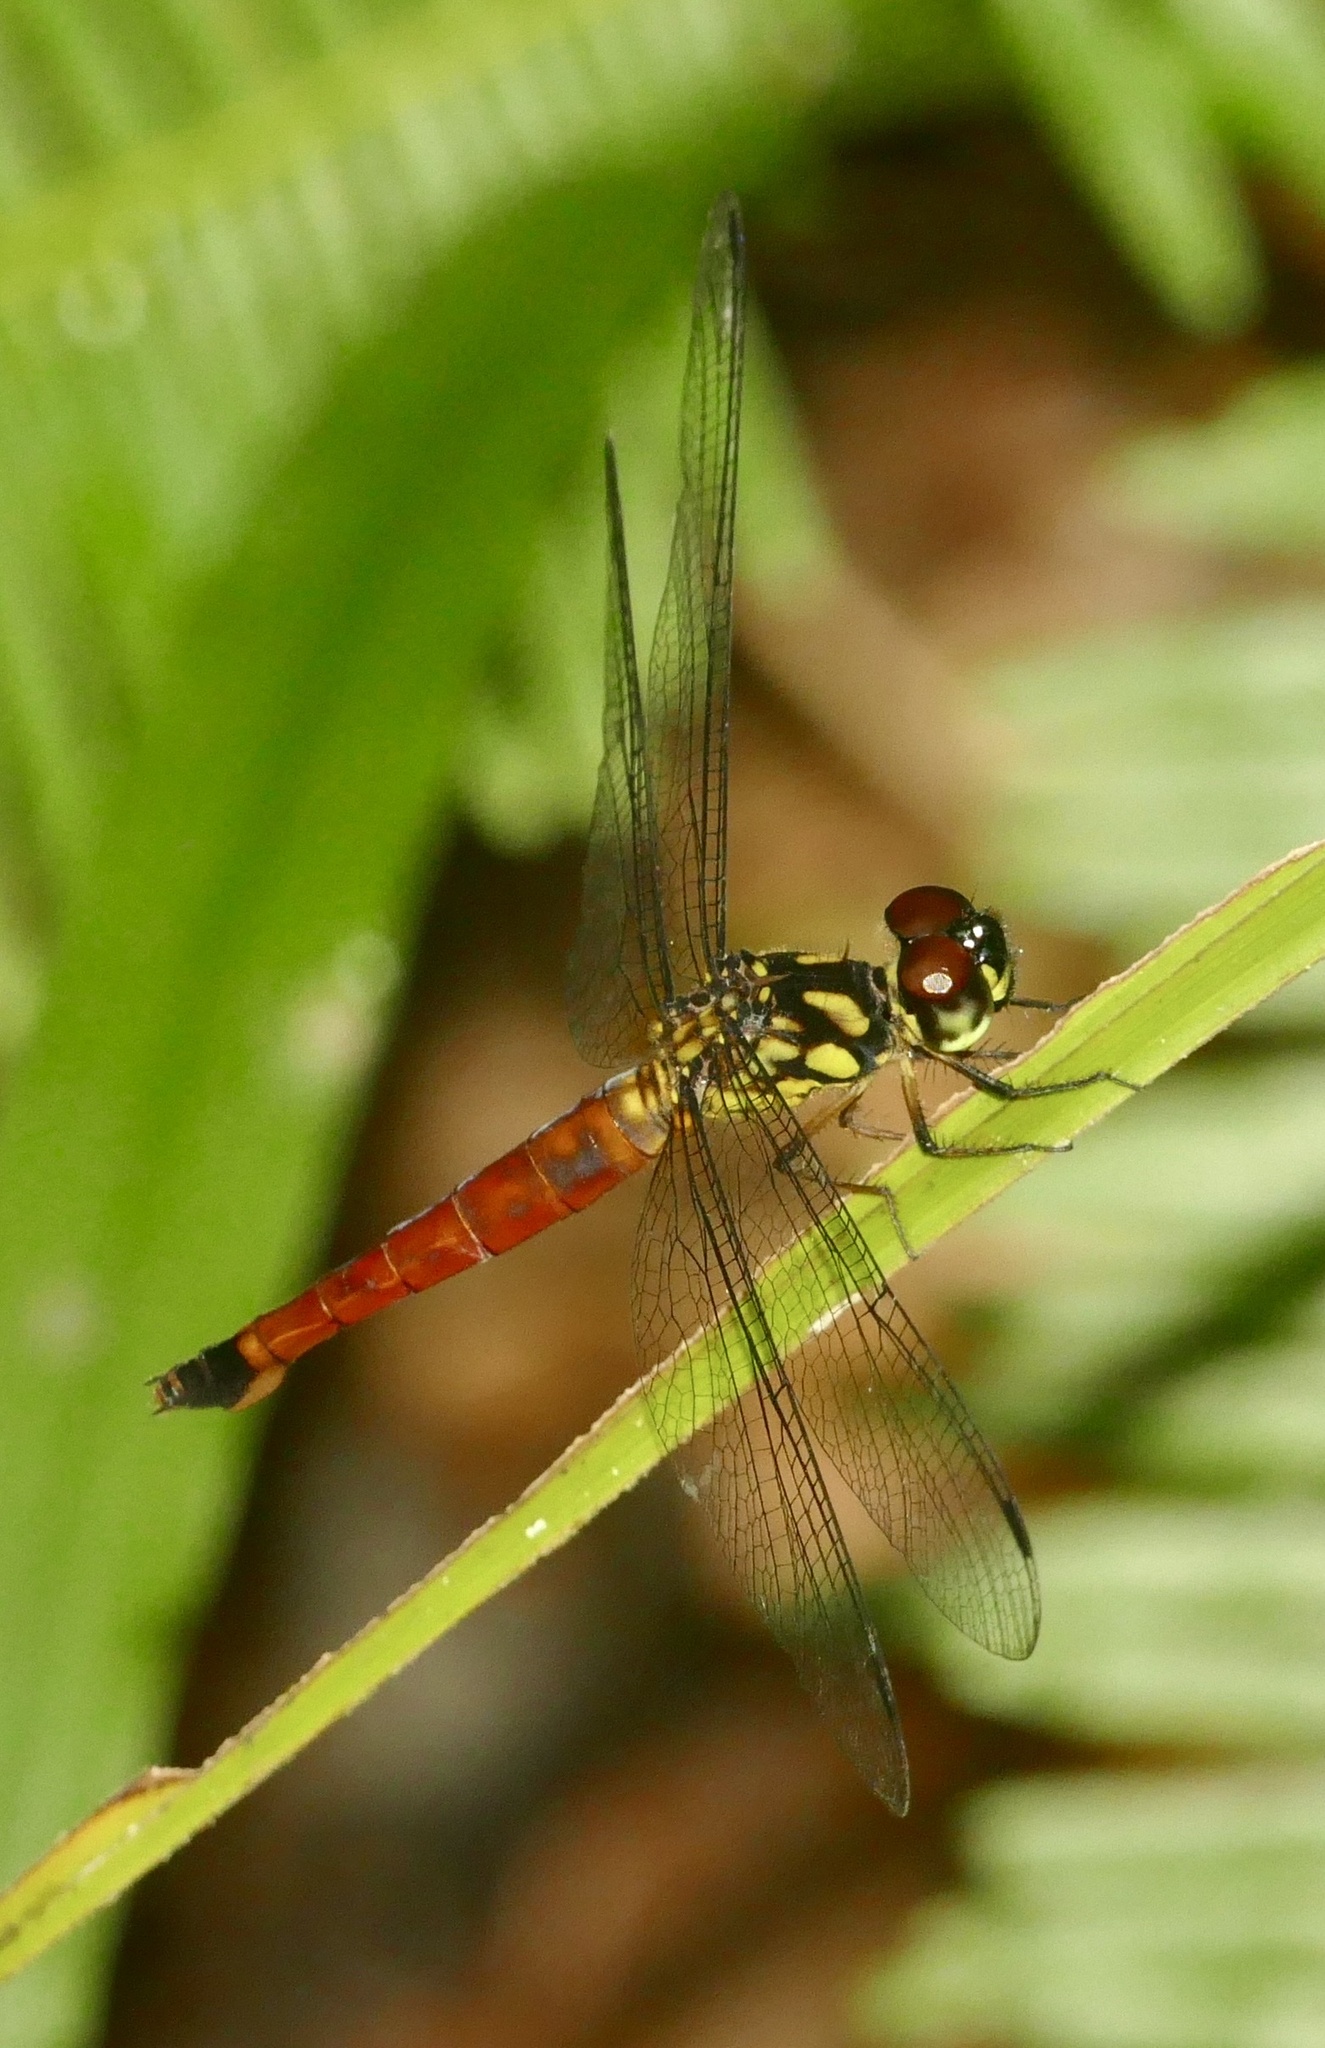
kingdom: Animalia
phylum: Arthropoda
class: Insecta
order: Odonata
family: Libellulidae
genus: Lyriothemis
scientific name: Lyriothemis meyeri
